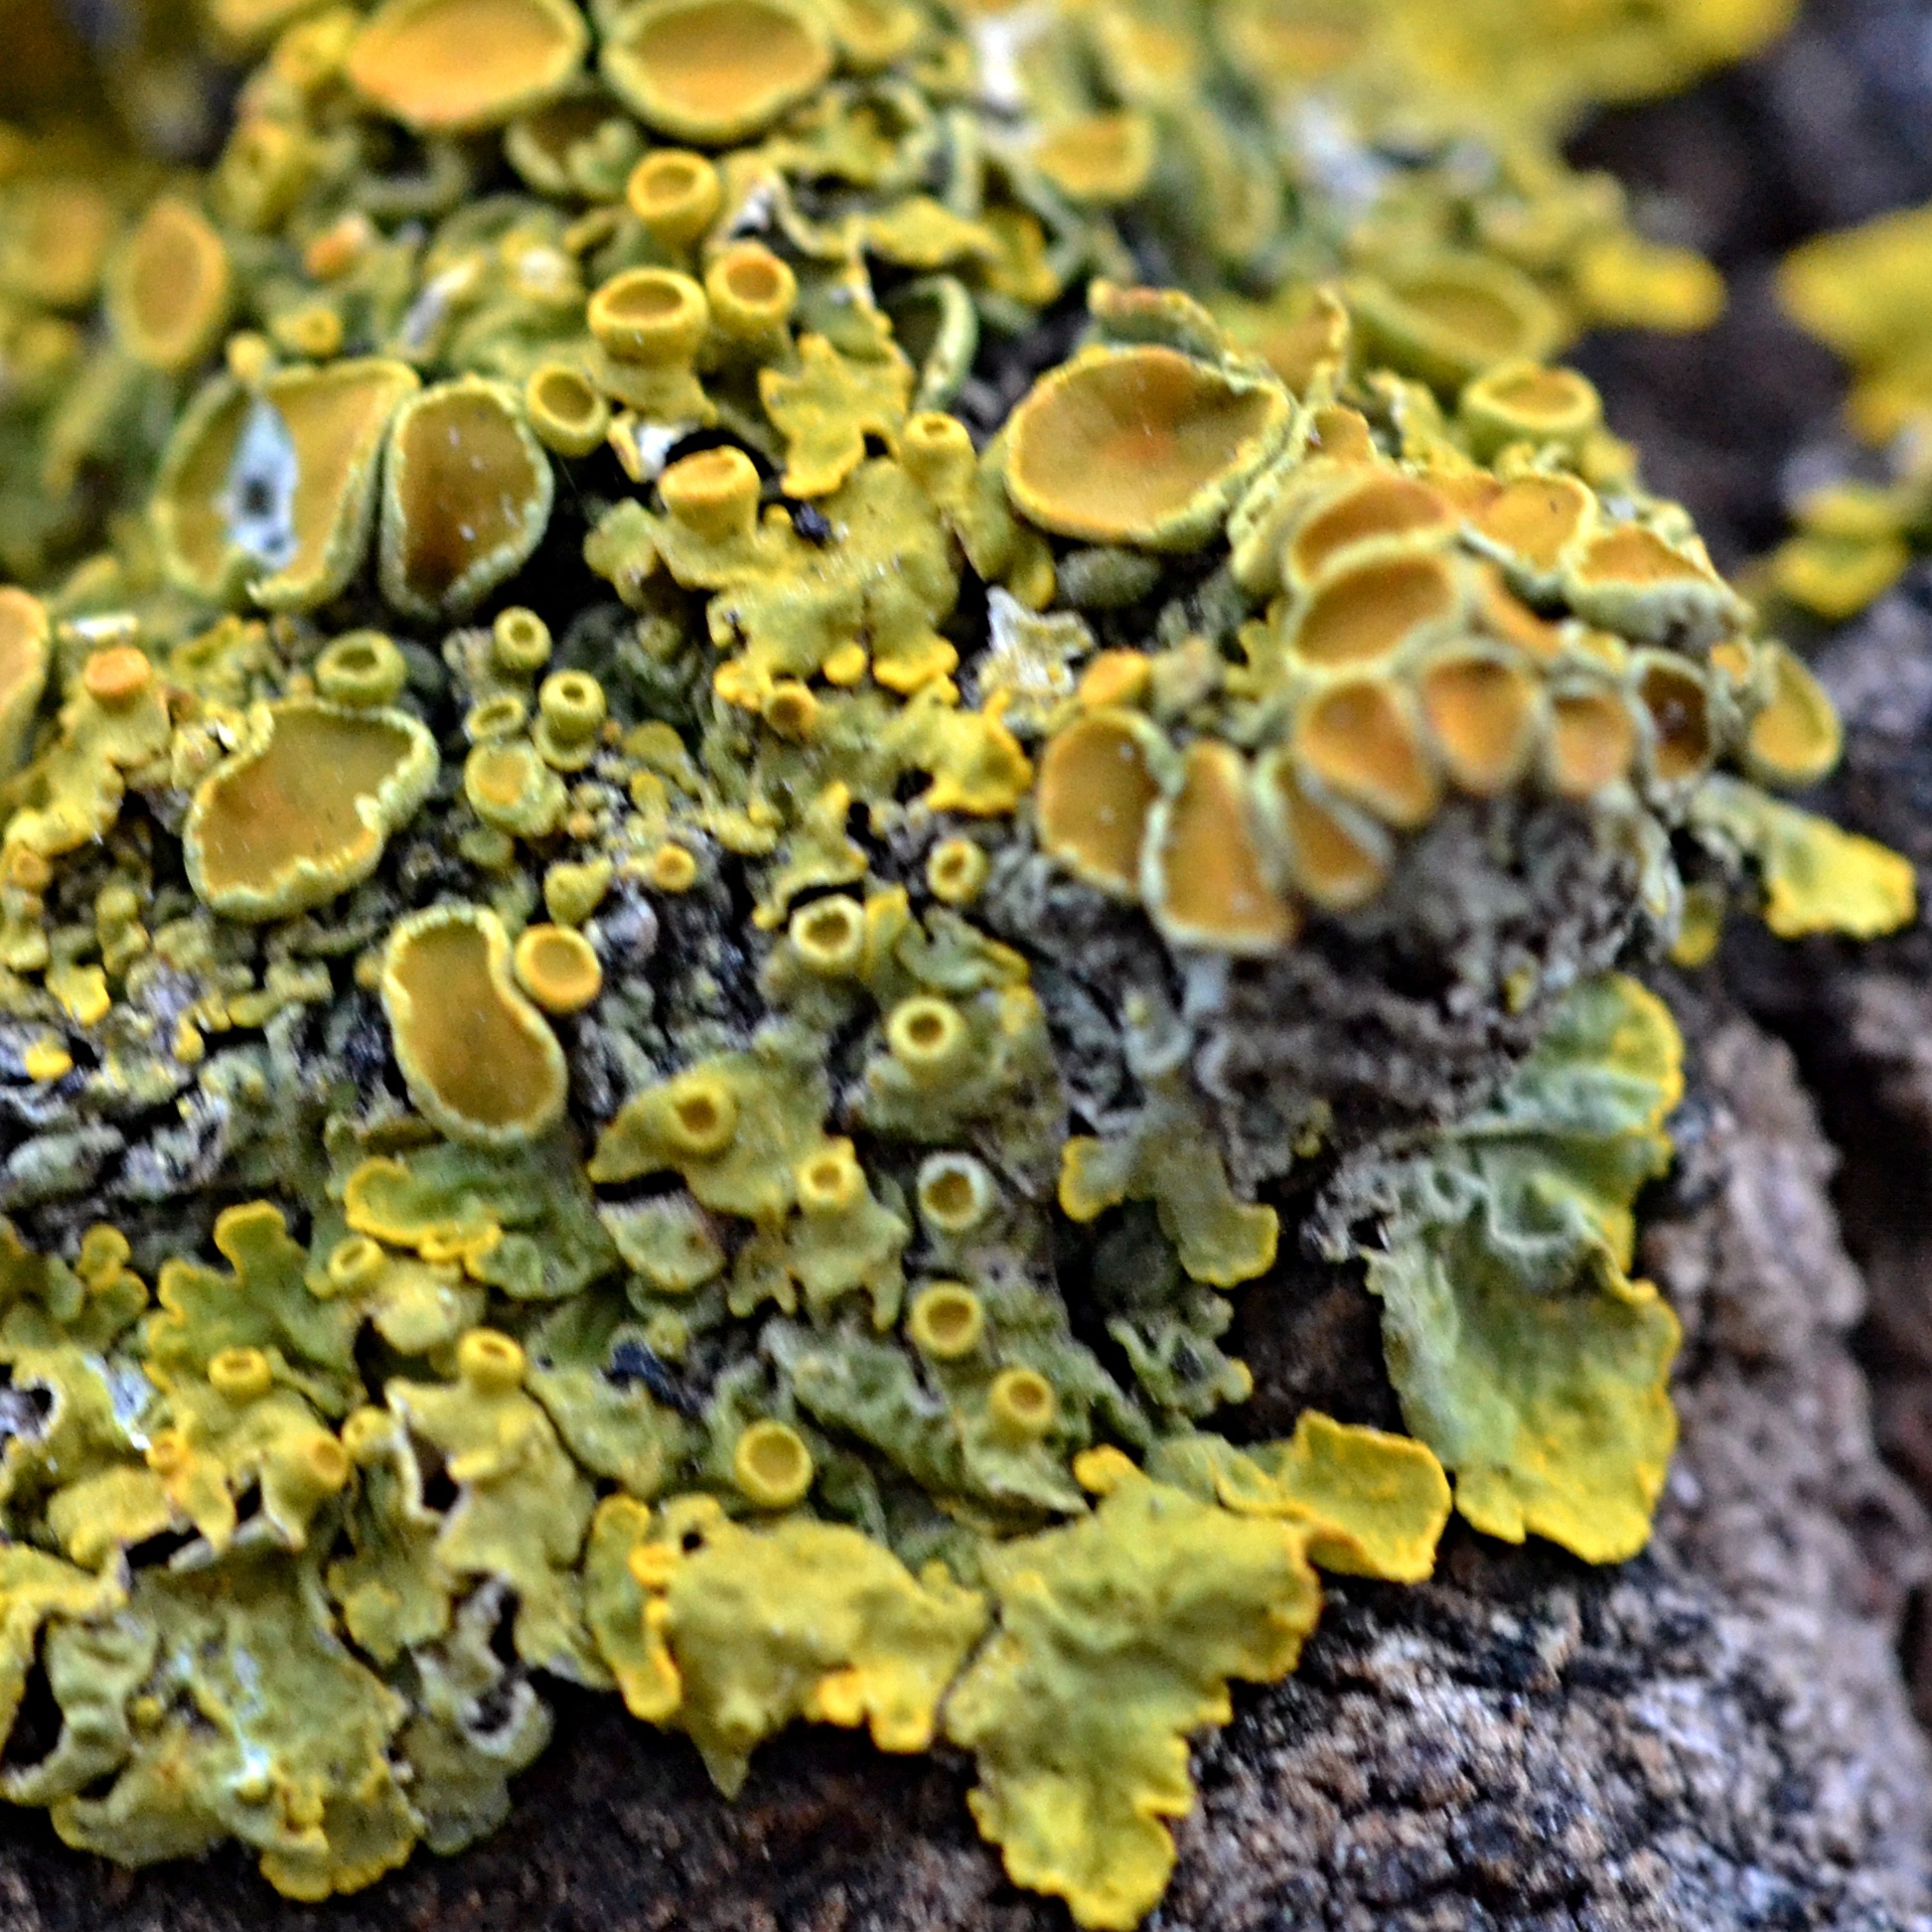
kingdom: Fungi
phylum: Ascomycota
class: Lecanoromycetes
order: Teloschistales
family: Teloschistaceae
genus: Xanthoria
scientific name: Xanthoria parietina
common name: Common orange lichen
